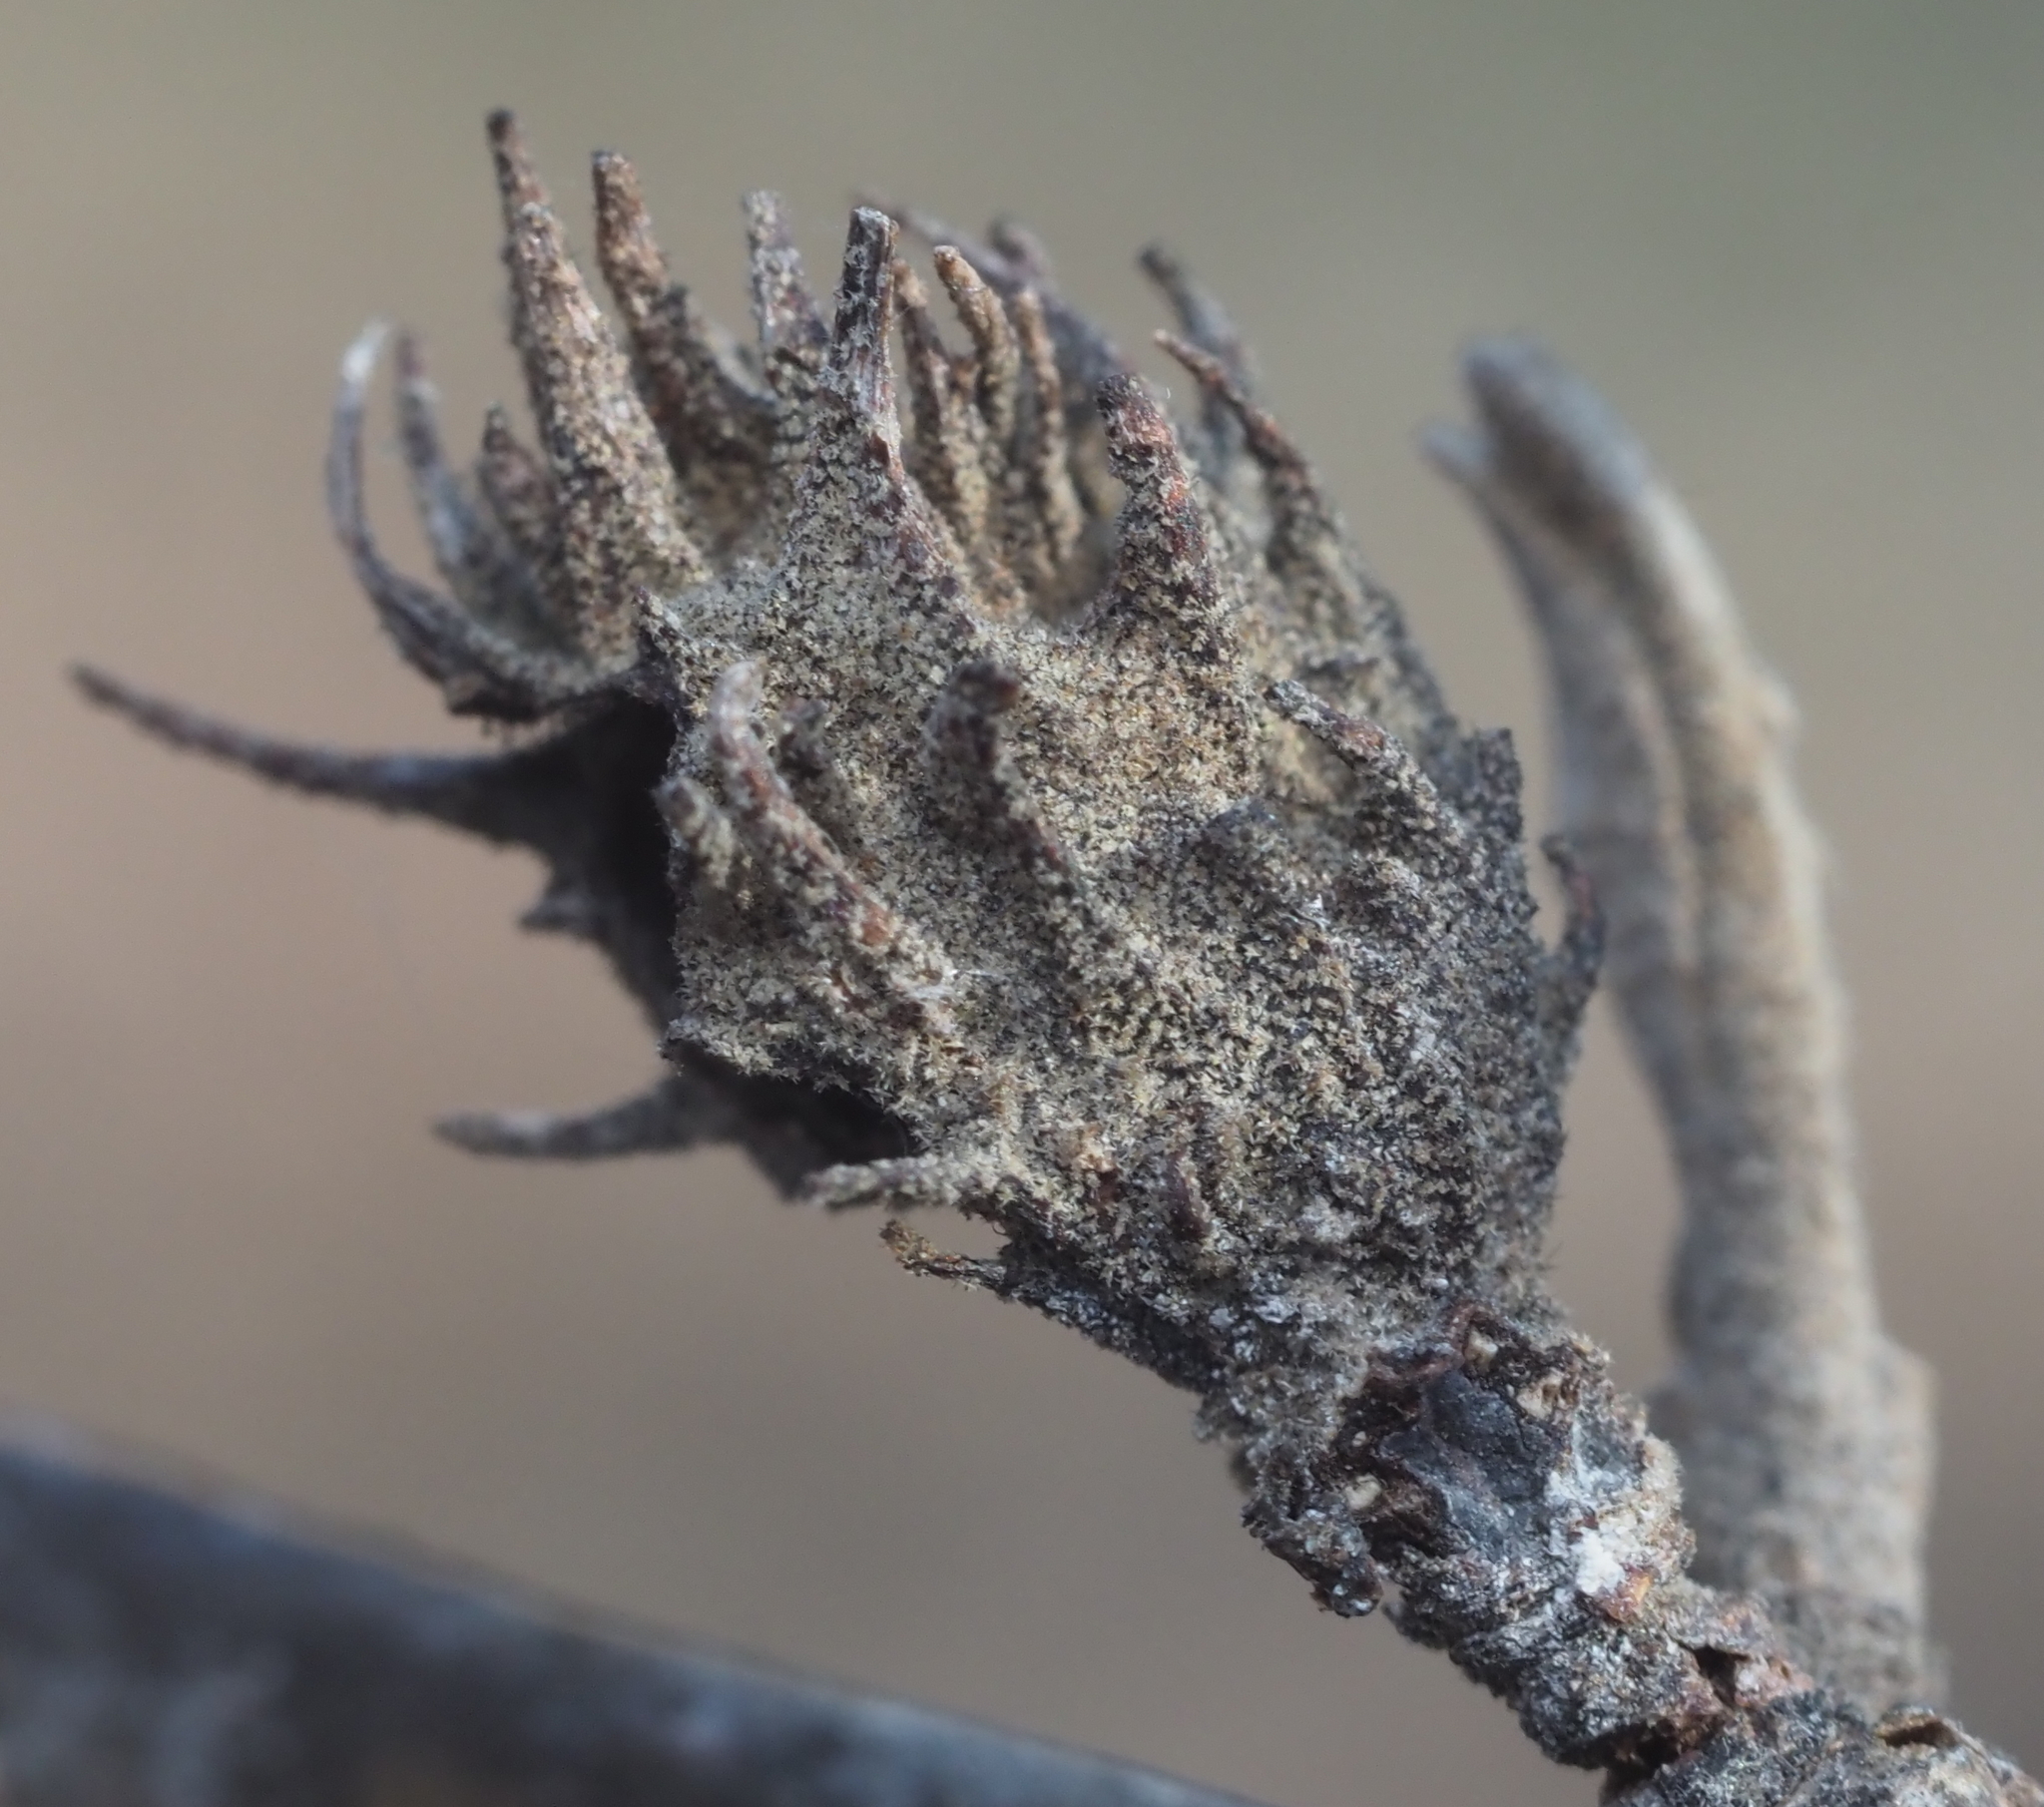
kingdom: Animalia
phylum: Arthropoda
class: Insecta
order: Hemiptera
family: Aphididae
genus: Hamamelistes
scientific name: Hamamelistes spinosus
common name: Witch hazel gall aphid
